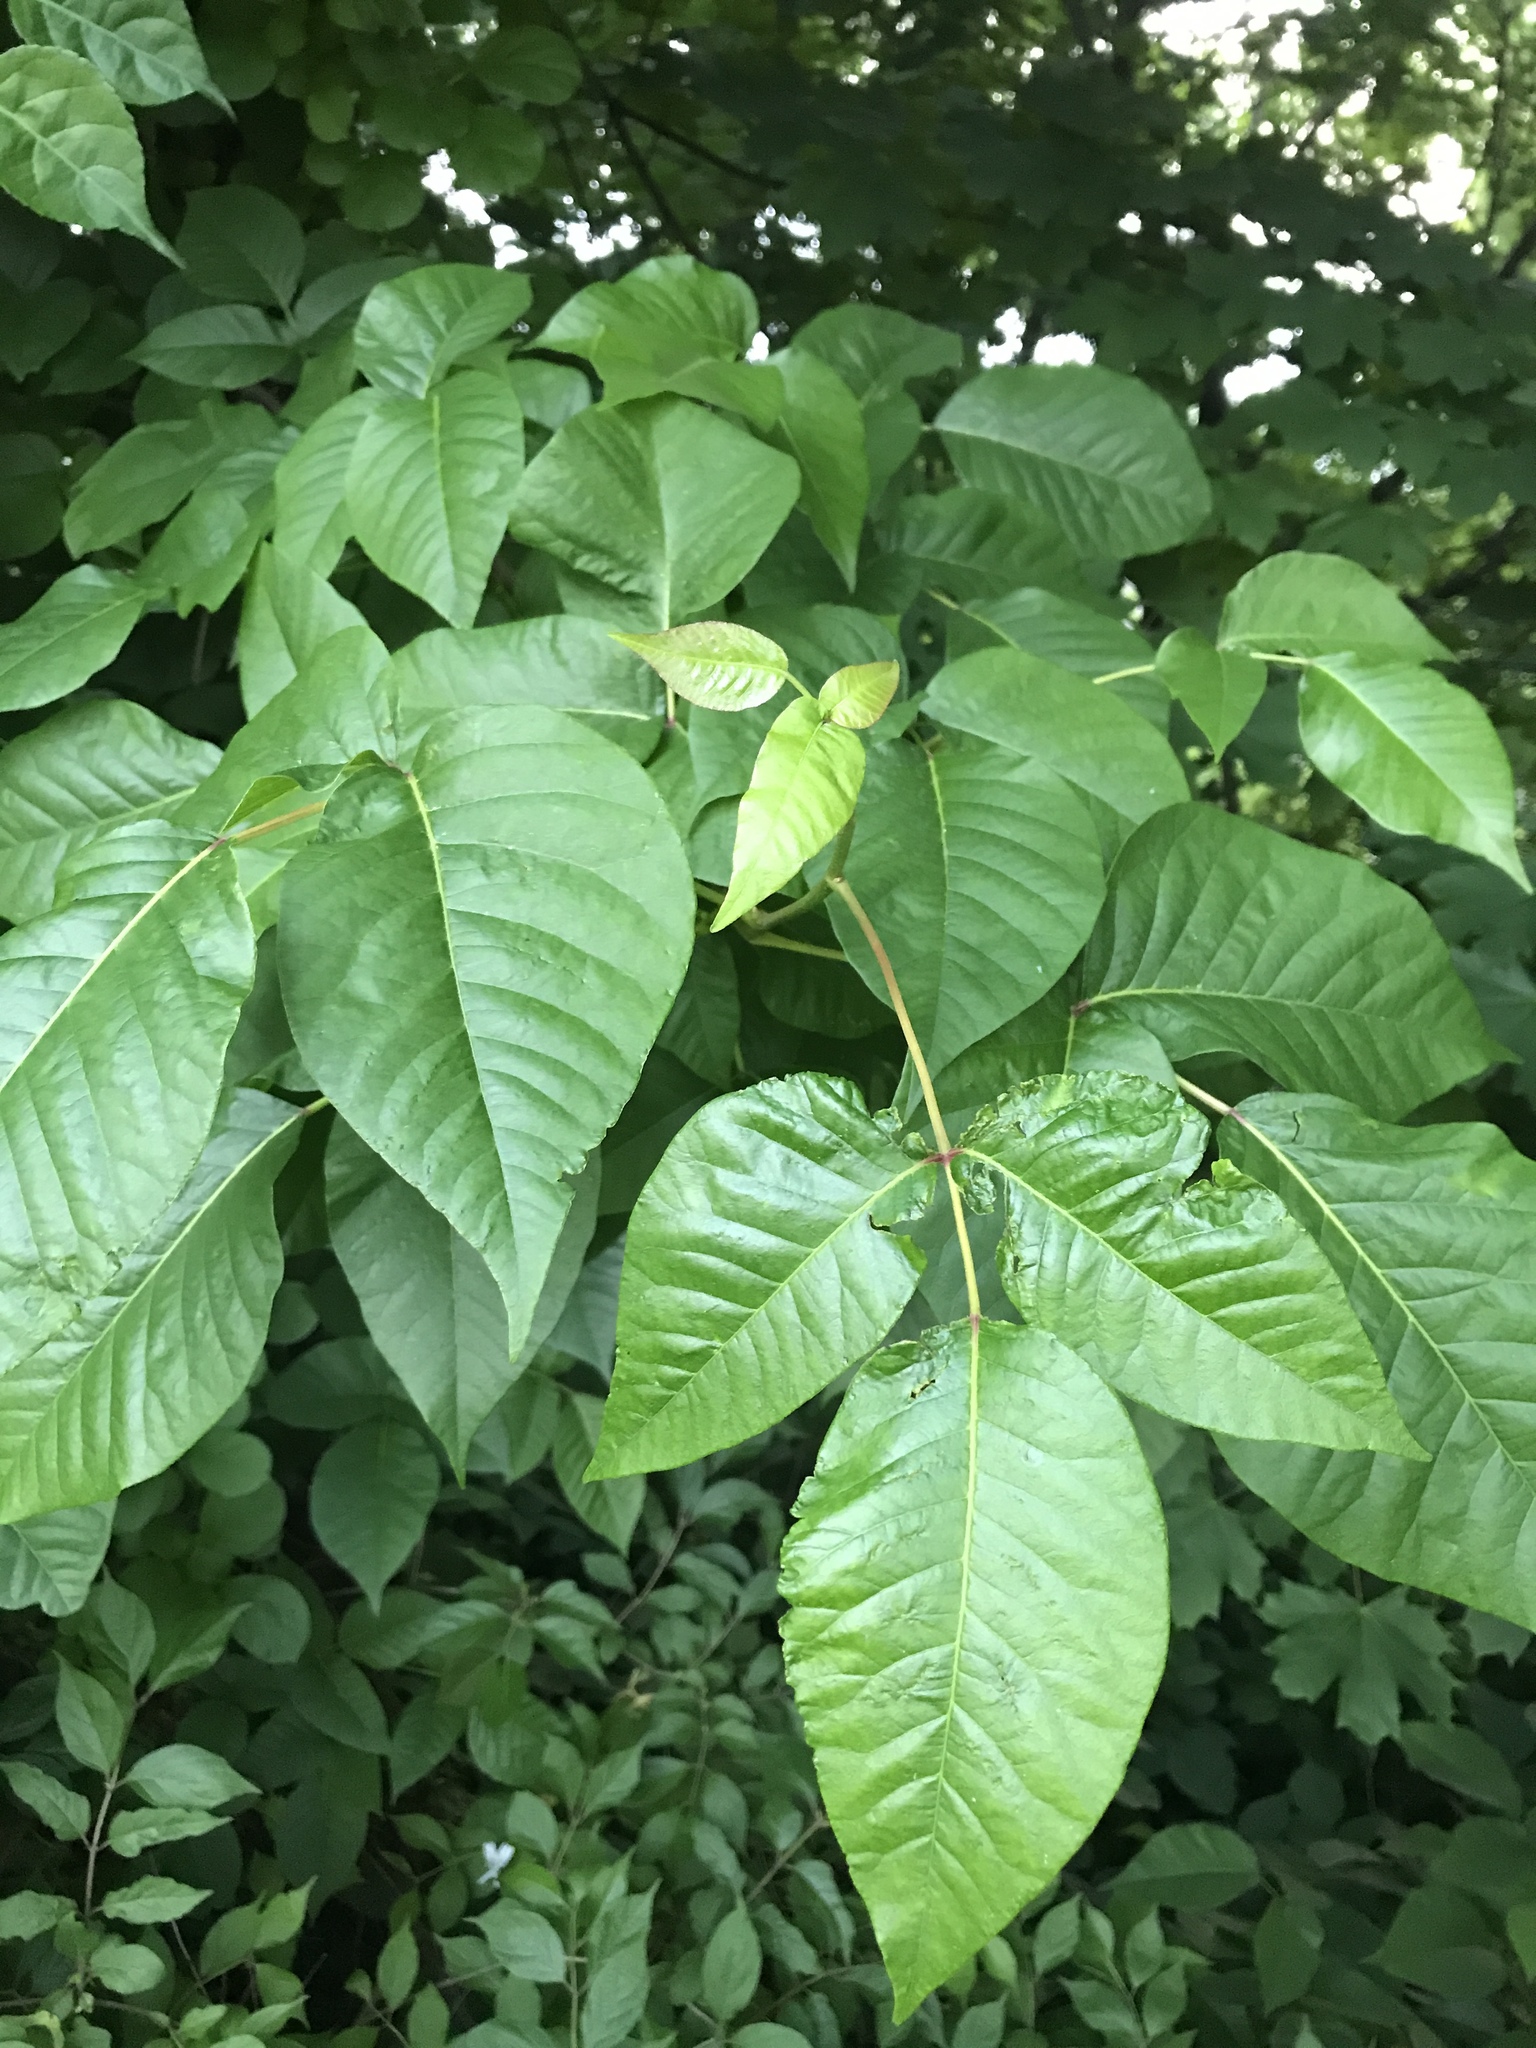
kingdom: Plantae
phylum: Tracheophyta
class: Magnoliopsida
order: Sapindales
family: Anacardiaceae
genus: Toxicodendron
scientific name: Toxicodendron radicans
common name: Poison ivy
